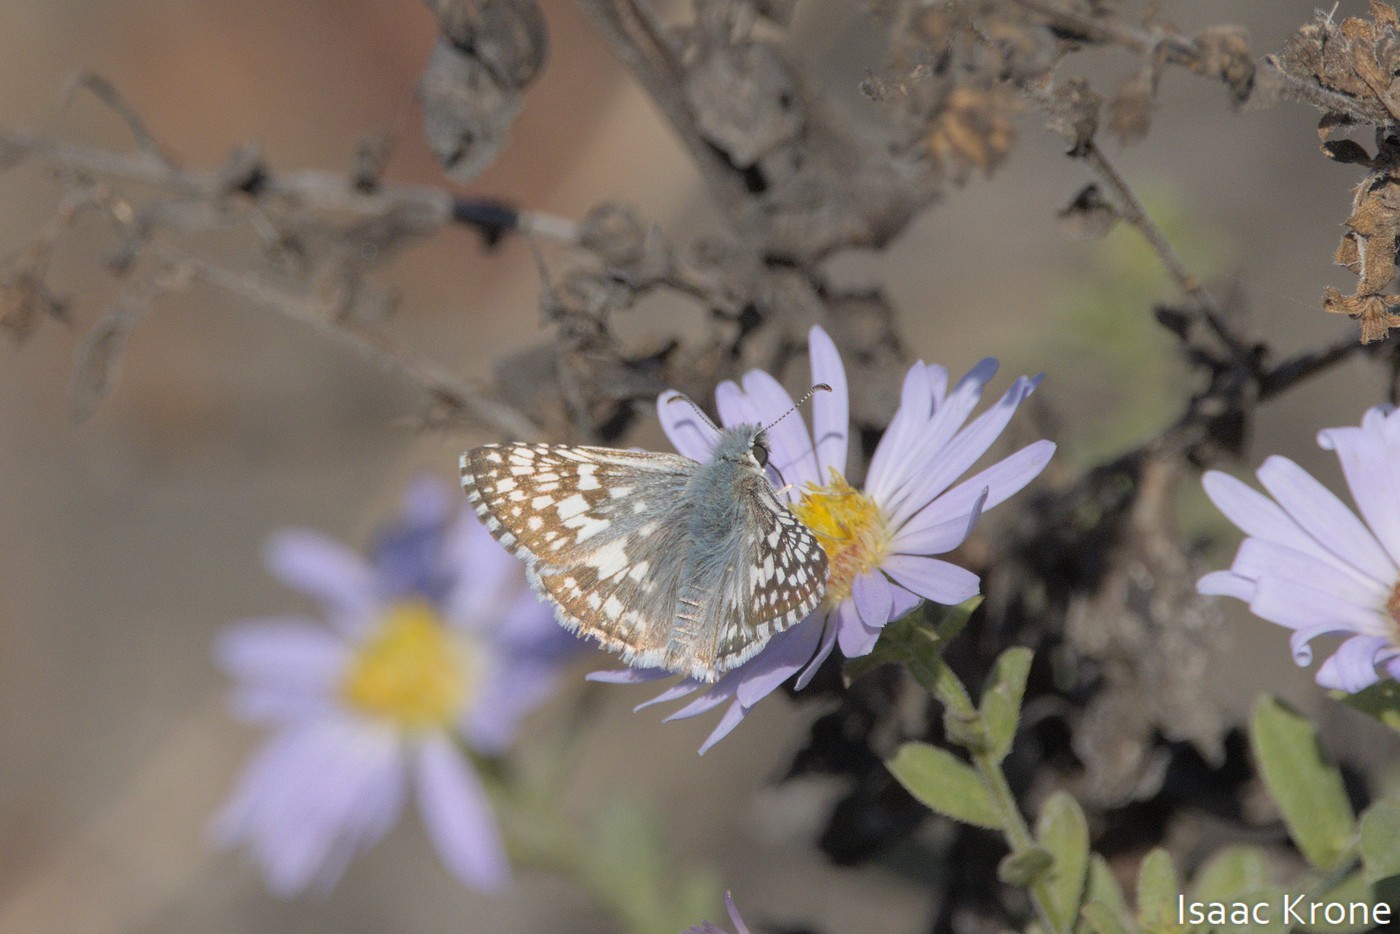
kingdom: Animalia
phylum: Arthropoda
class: Insecta
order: Lepidoptera
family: Hesperiidae
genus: Burnsius
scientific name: Burnsius communis
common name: Common checkered-skipper
